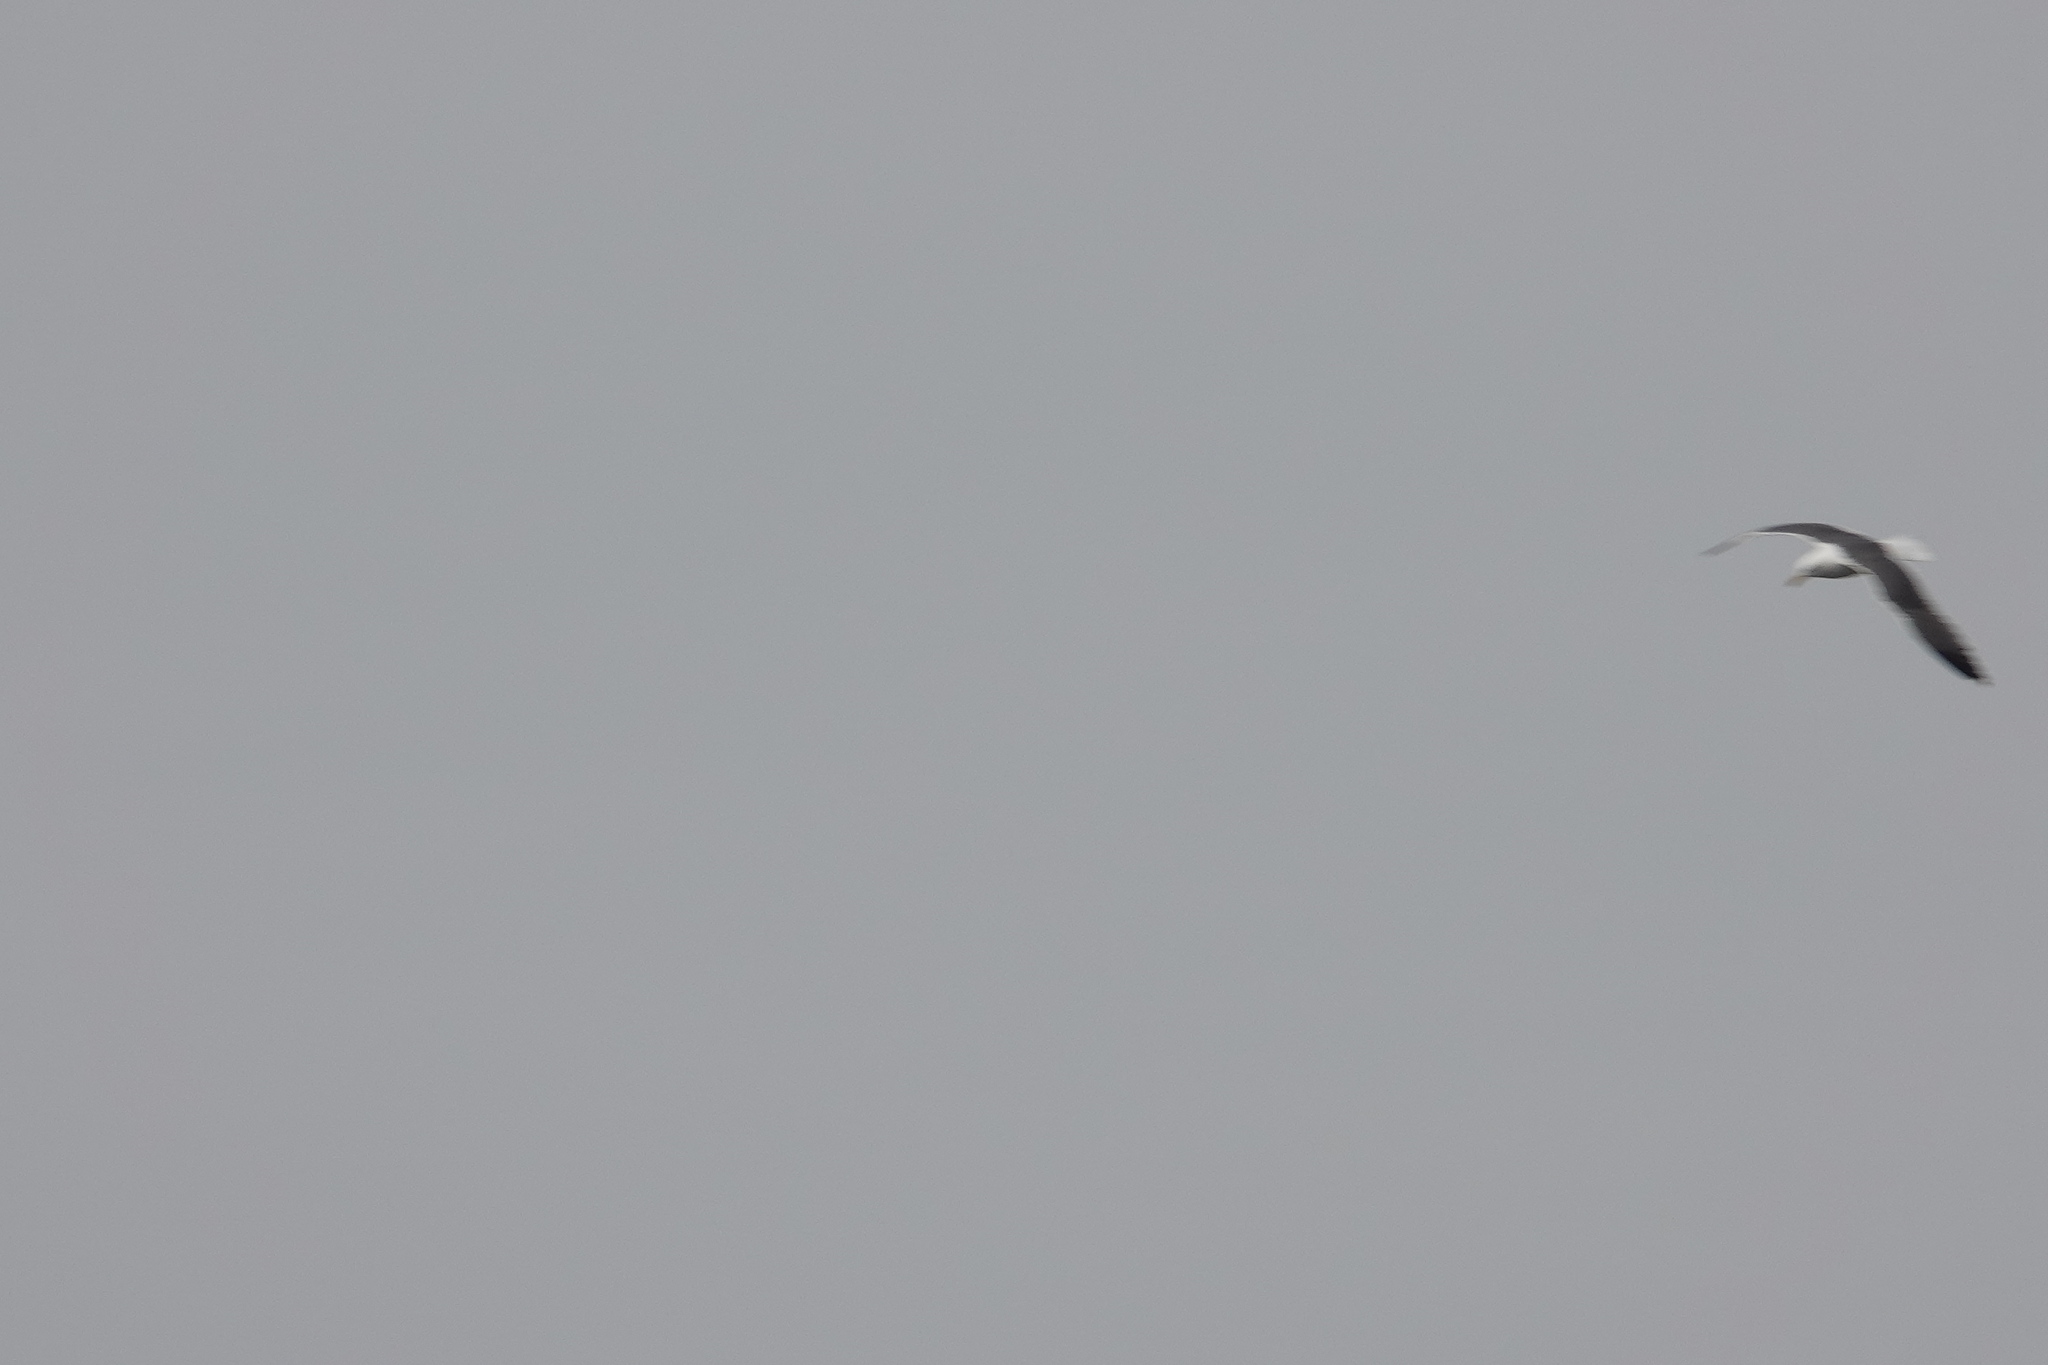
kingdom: Animalia
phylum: Chordata
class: Aves
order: Charadriiformes
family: Laridae
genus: Larus
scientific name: Larus fuscus
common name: Lesser black-backed gull
